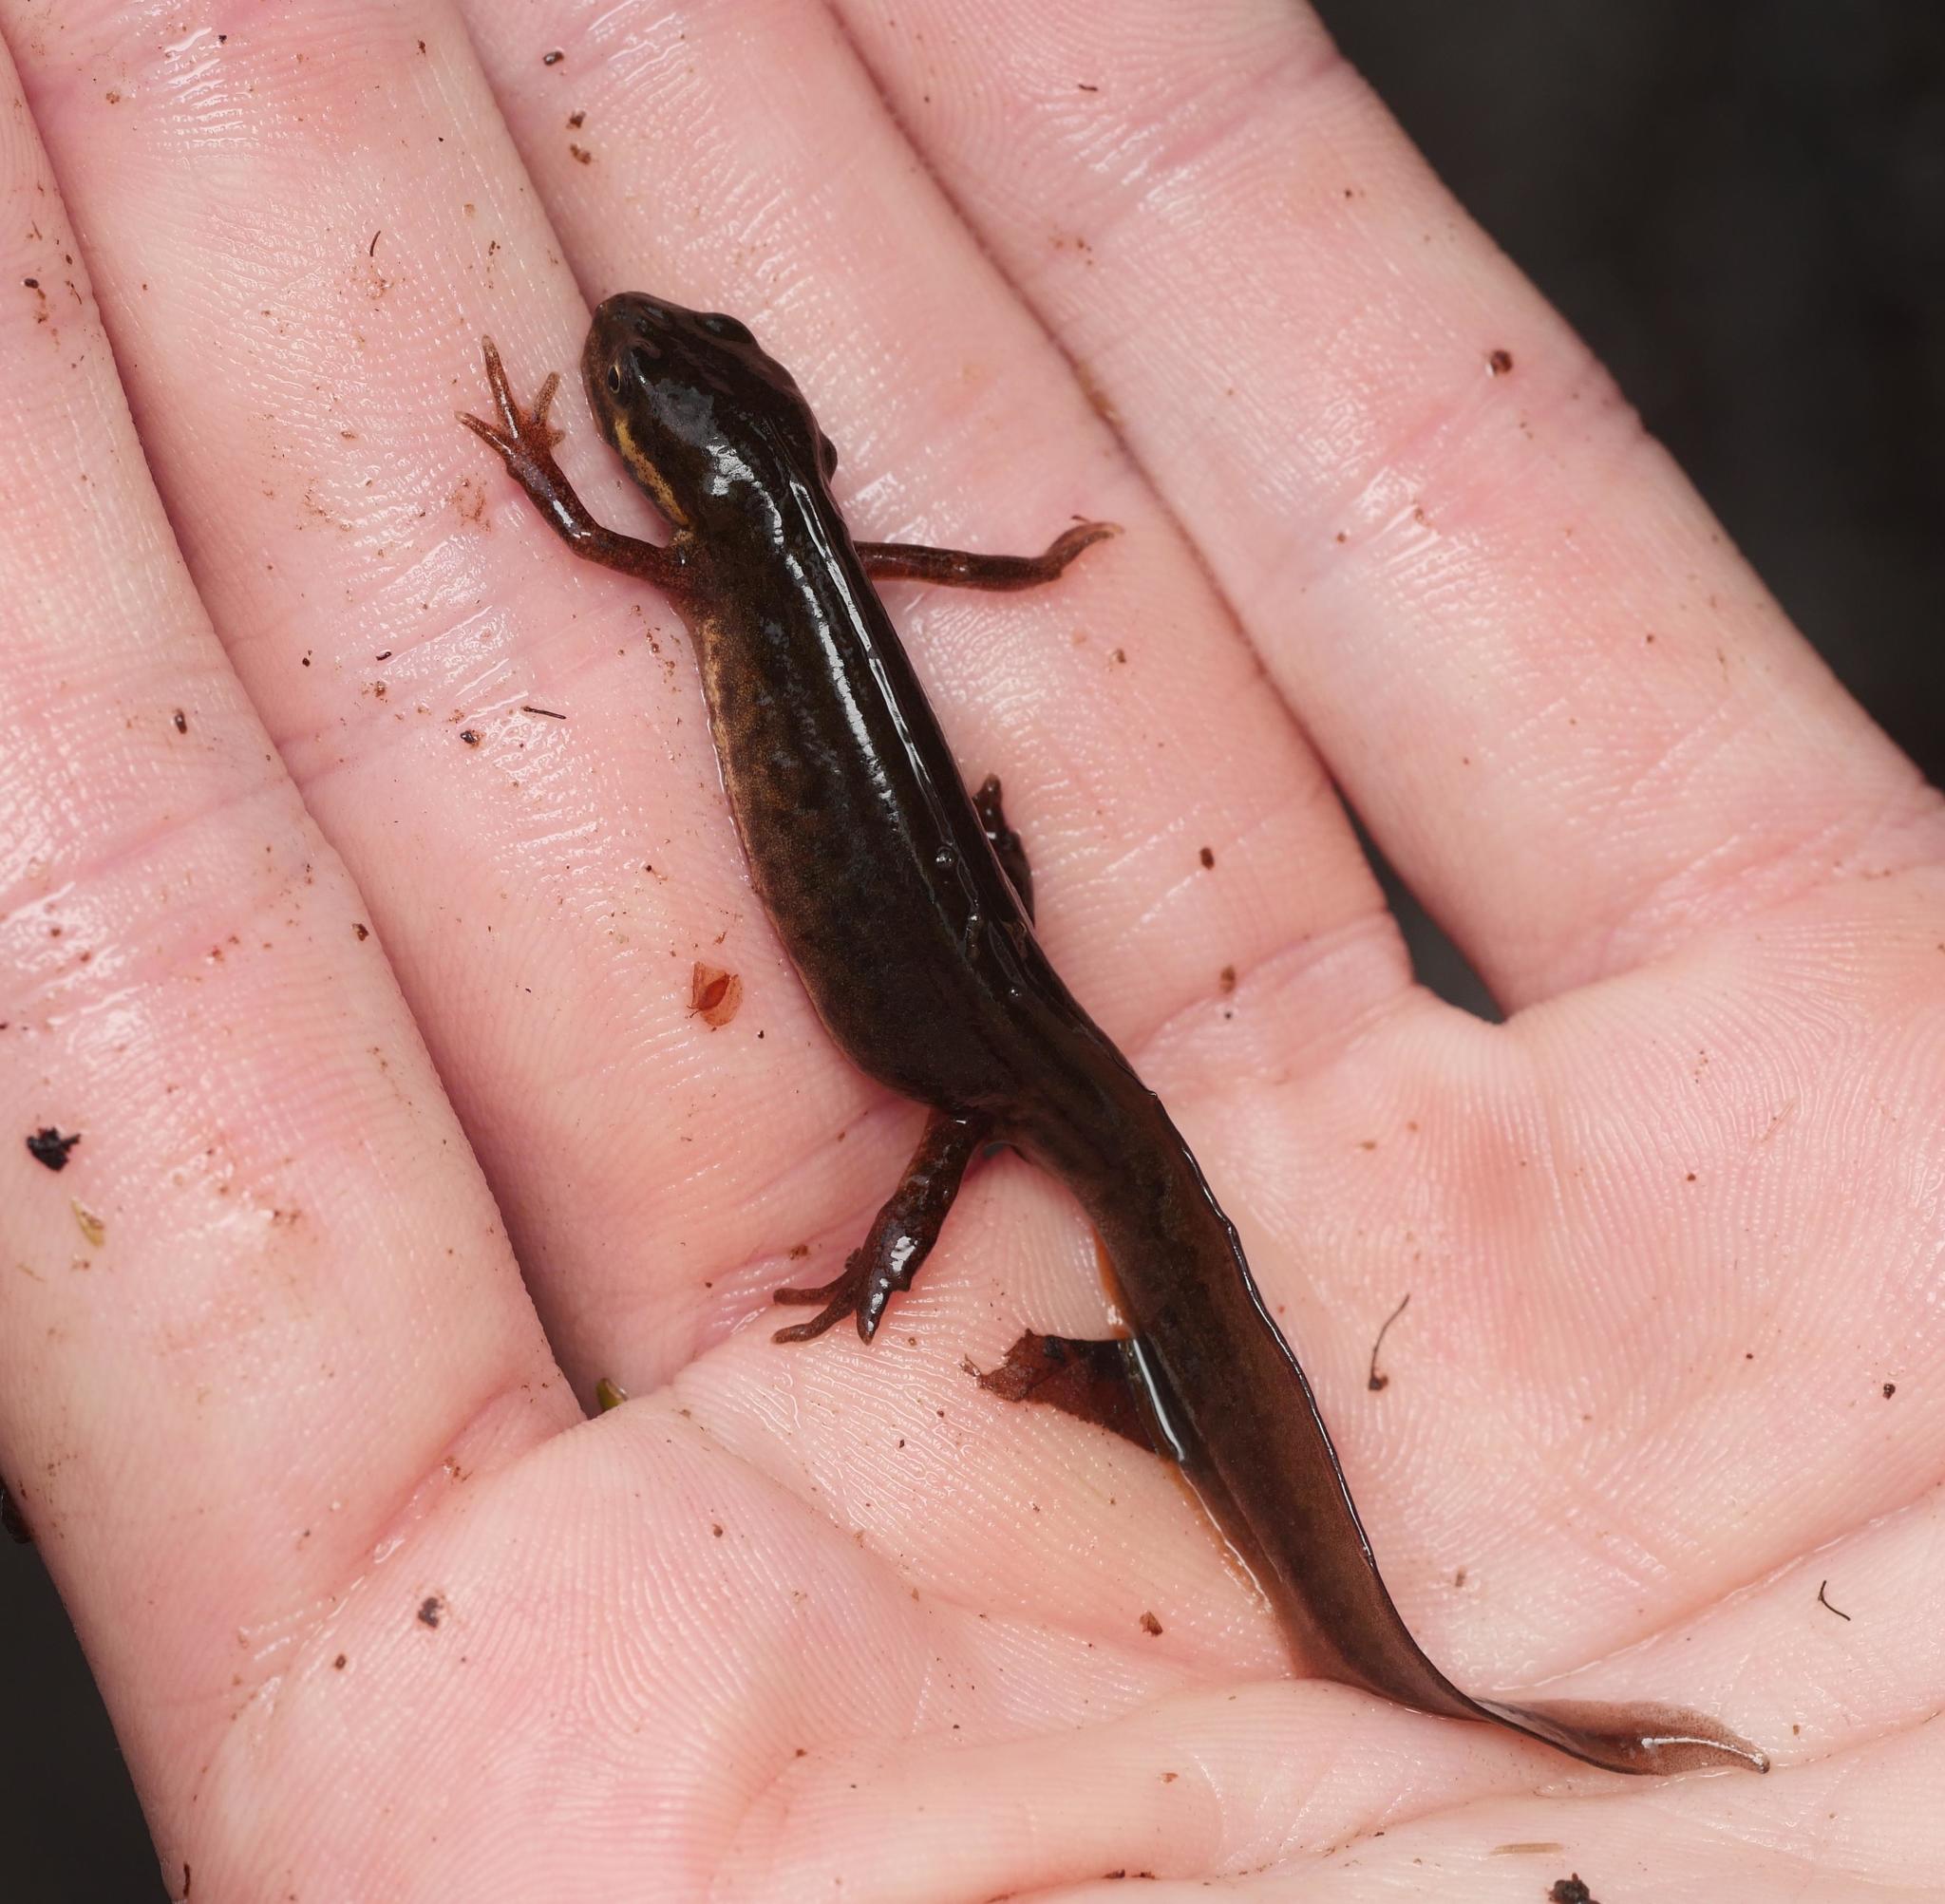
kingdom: Animalia
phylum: Chordata
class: Amphibia
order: Caudata
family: Salamandridae
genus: Lissotriton
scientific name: Lissotriton vulgaris
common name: Smooth newt
